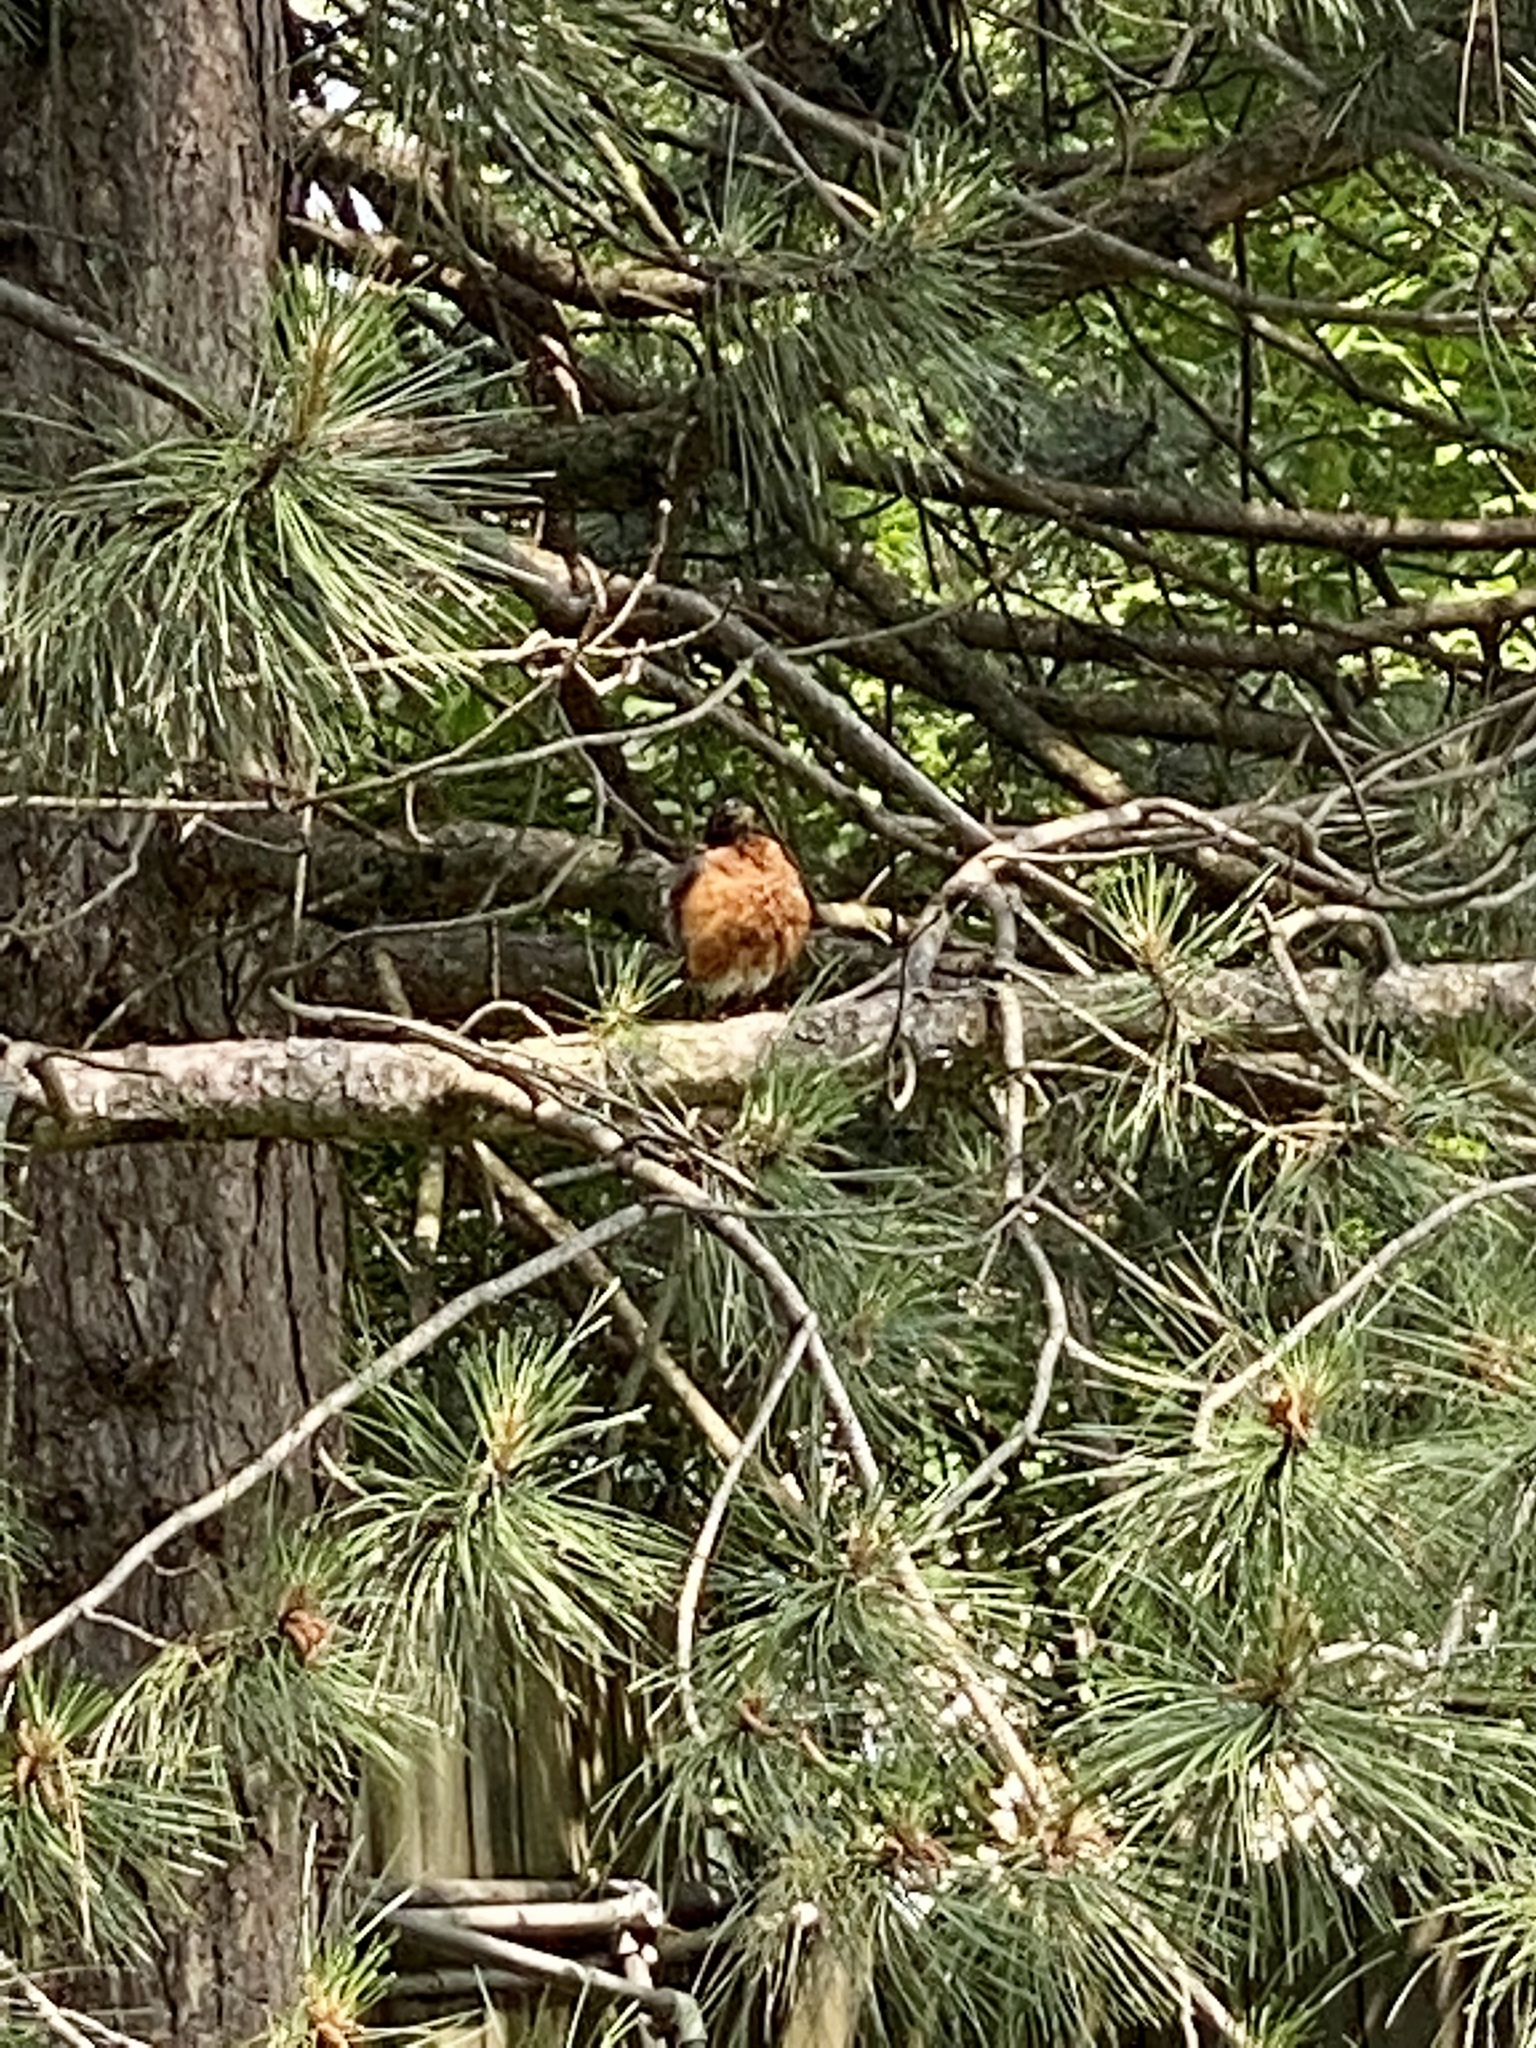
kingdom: Animalia
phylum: Chordata
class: Aves
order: Passeriformes
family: Turdidae
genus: Turdus
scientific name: Turdus migratorius
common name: American robin
